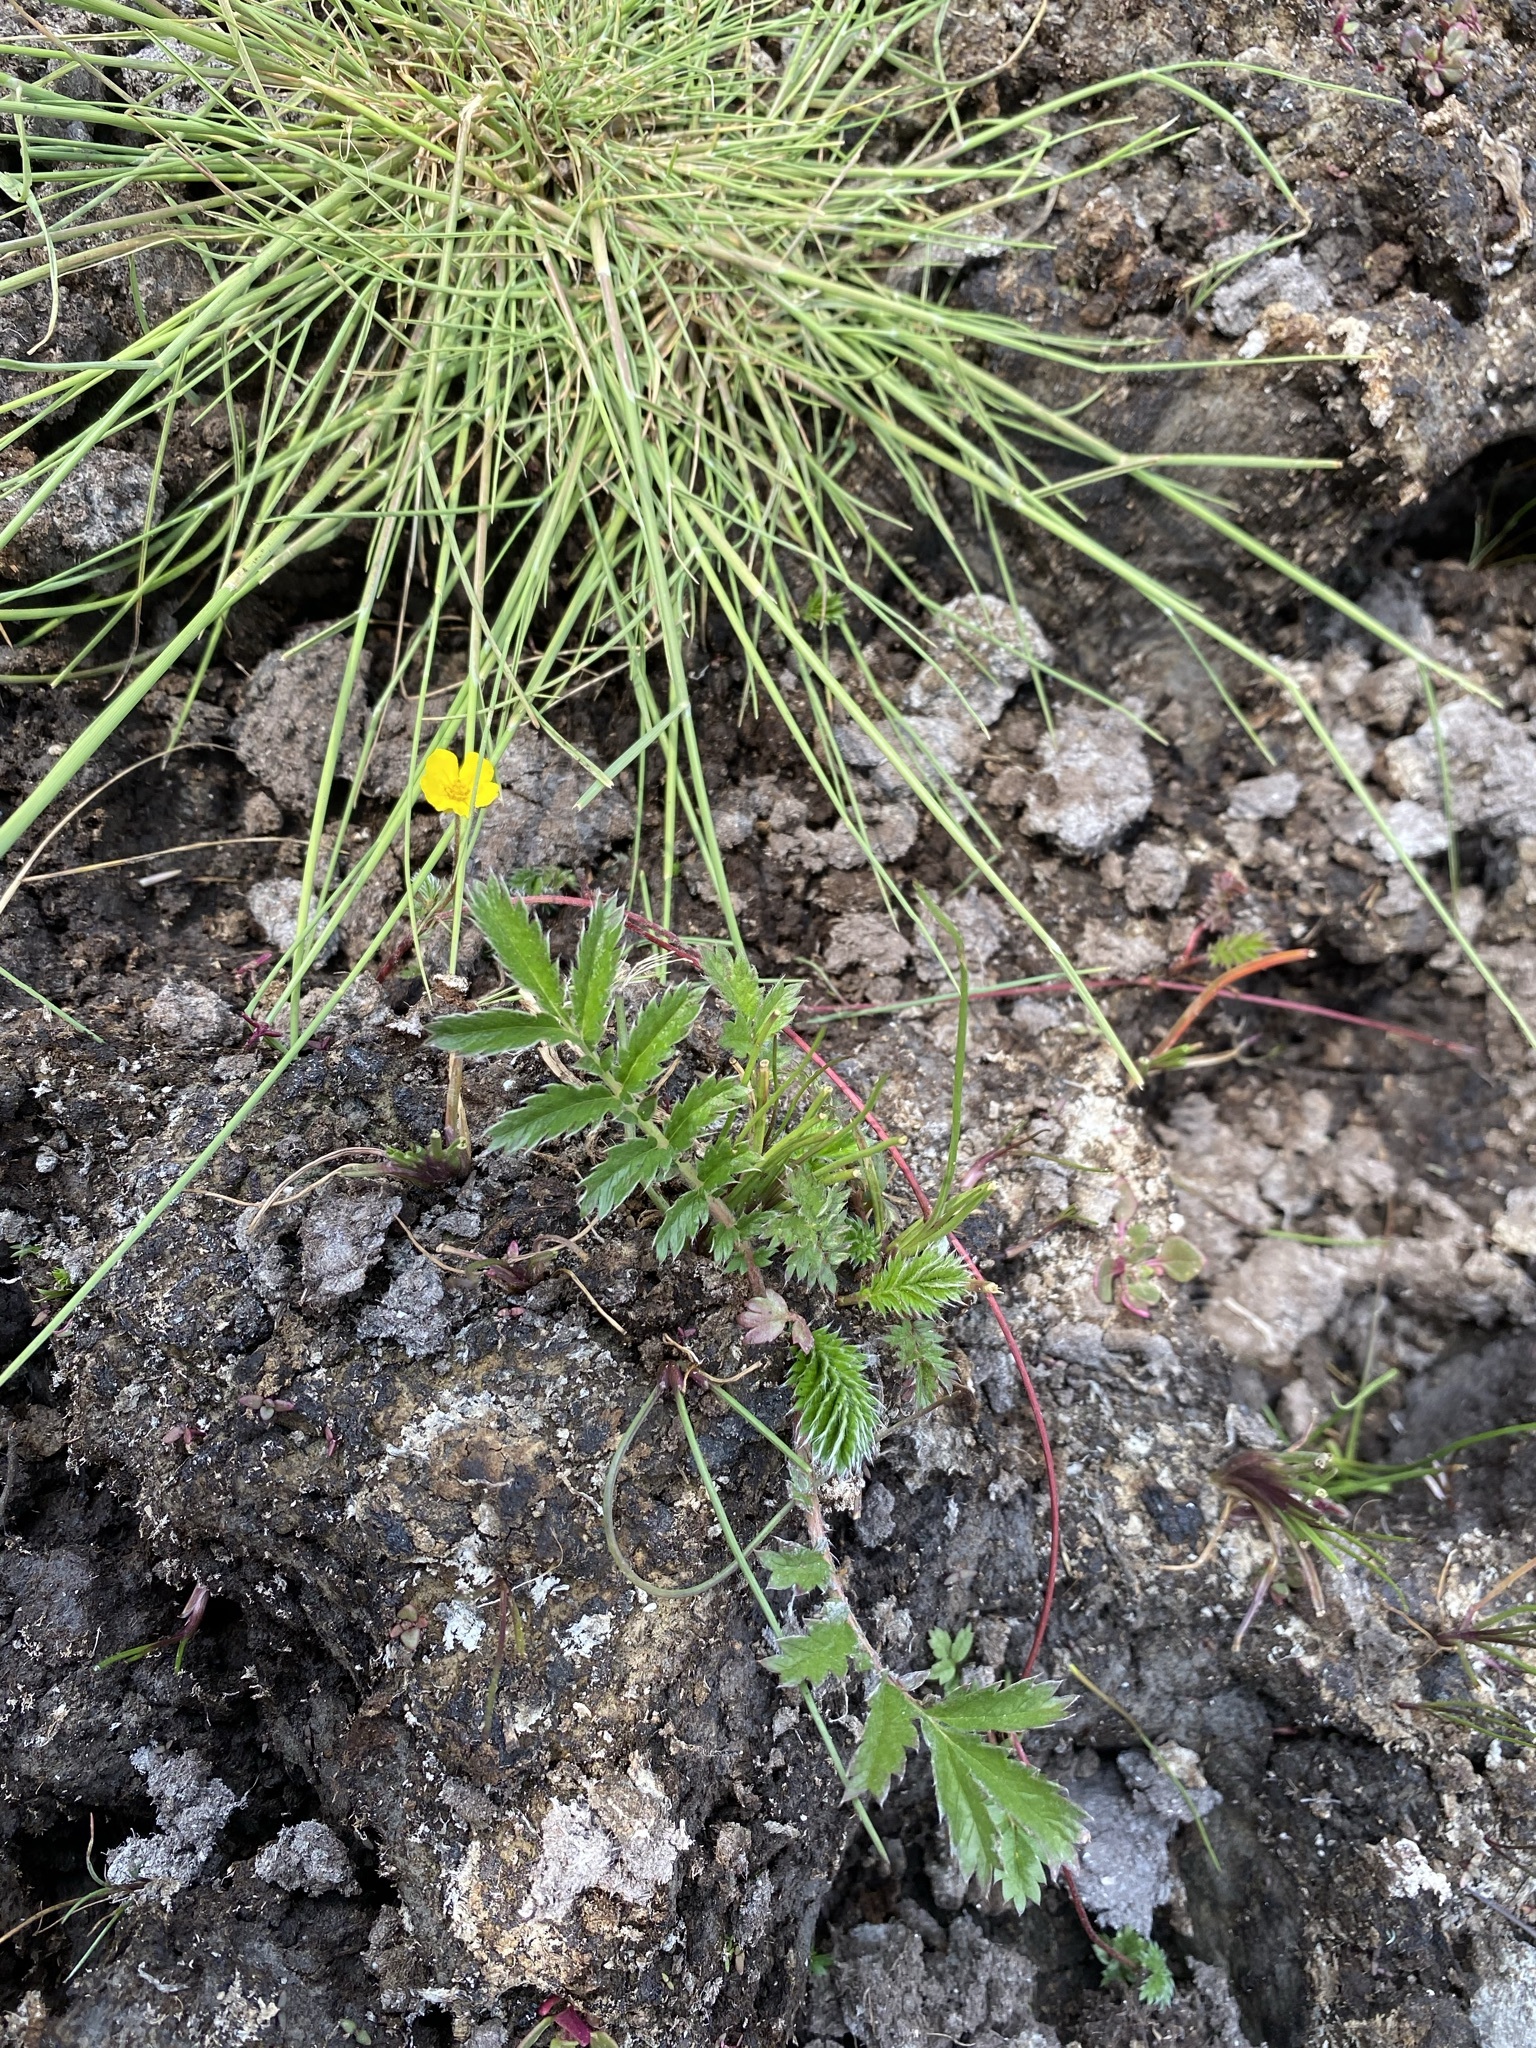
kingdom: Plantae
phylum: Tracheophyta
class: Magnoliopsida
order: Rosales
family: Rosaceae
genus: Argentina
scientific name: Argentina anserina
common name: Common silverweed
